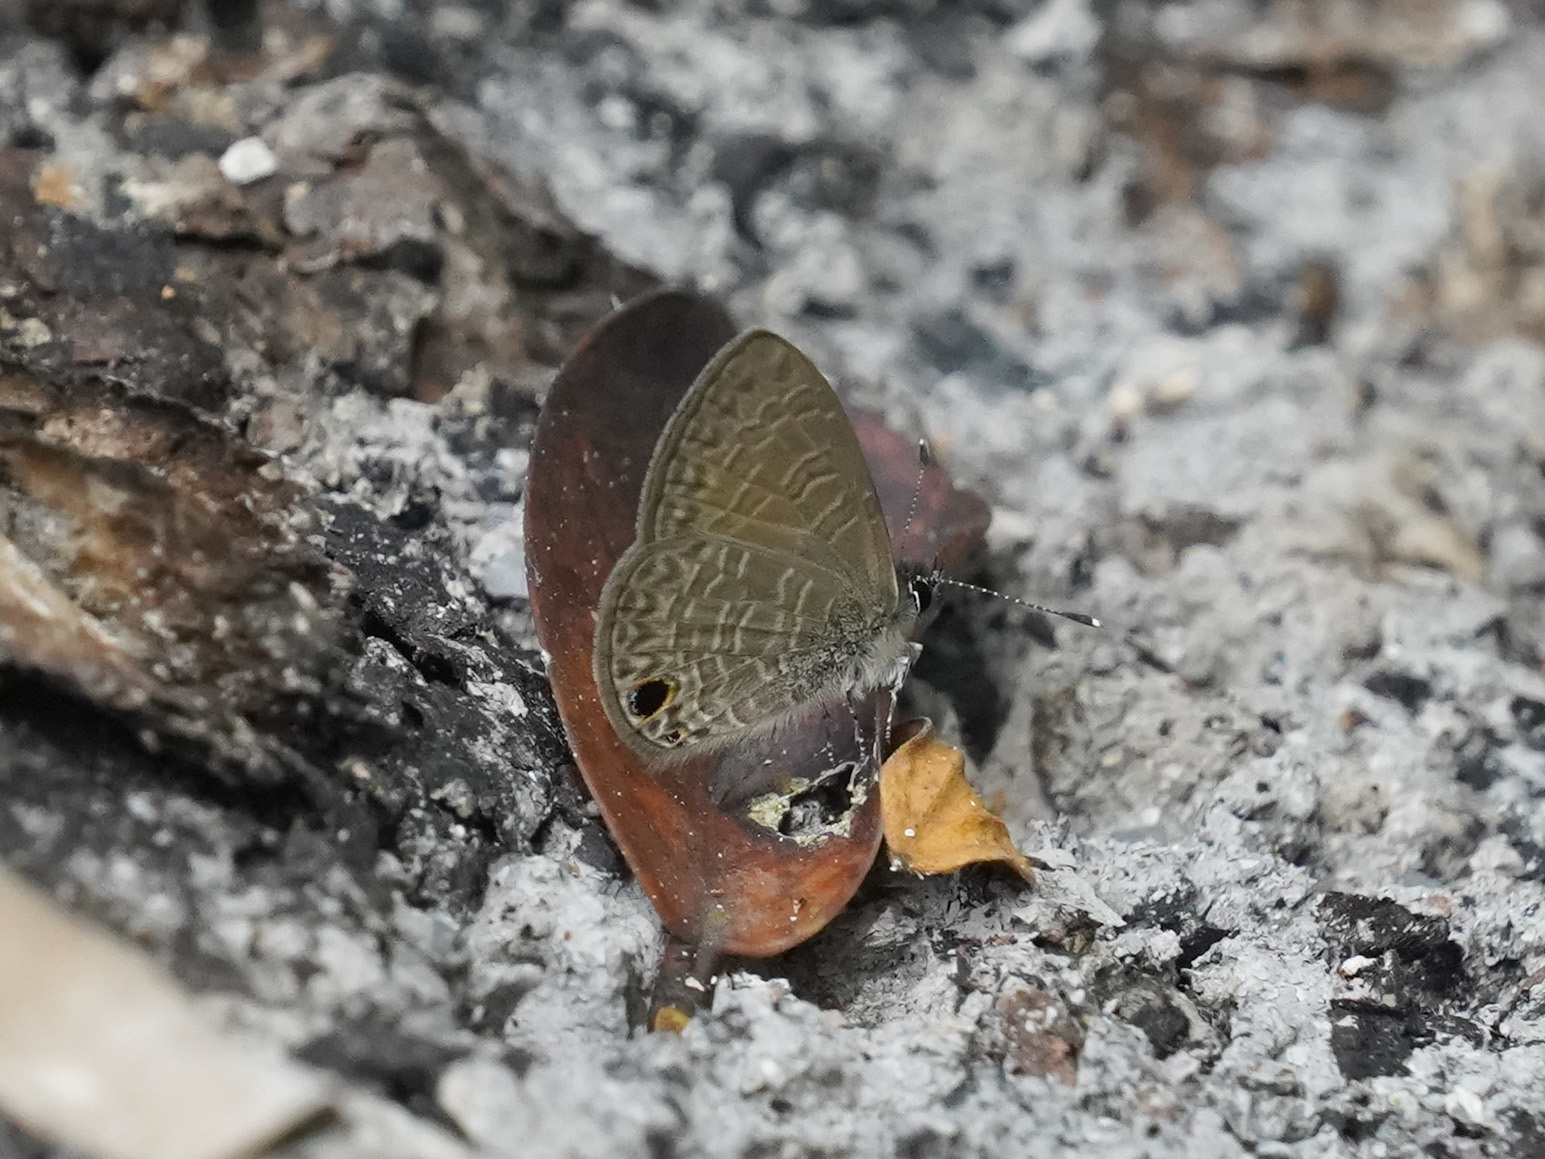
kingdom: Animalia
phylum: Arthropoda
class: Insecta
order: Lepidoptera
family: Lycaenidae
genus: Prosotas
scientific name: Prosotas dubiosa
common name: Tailless lineblue
